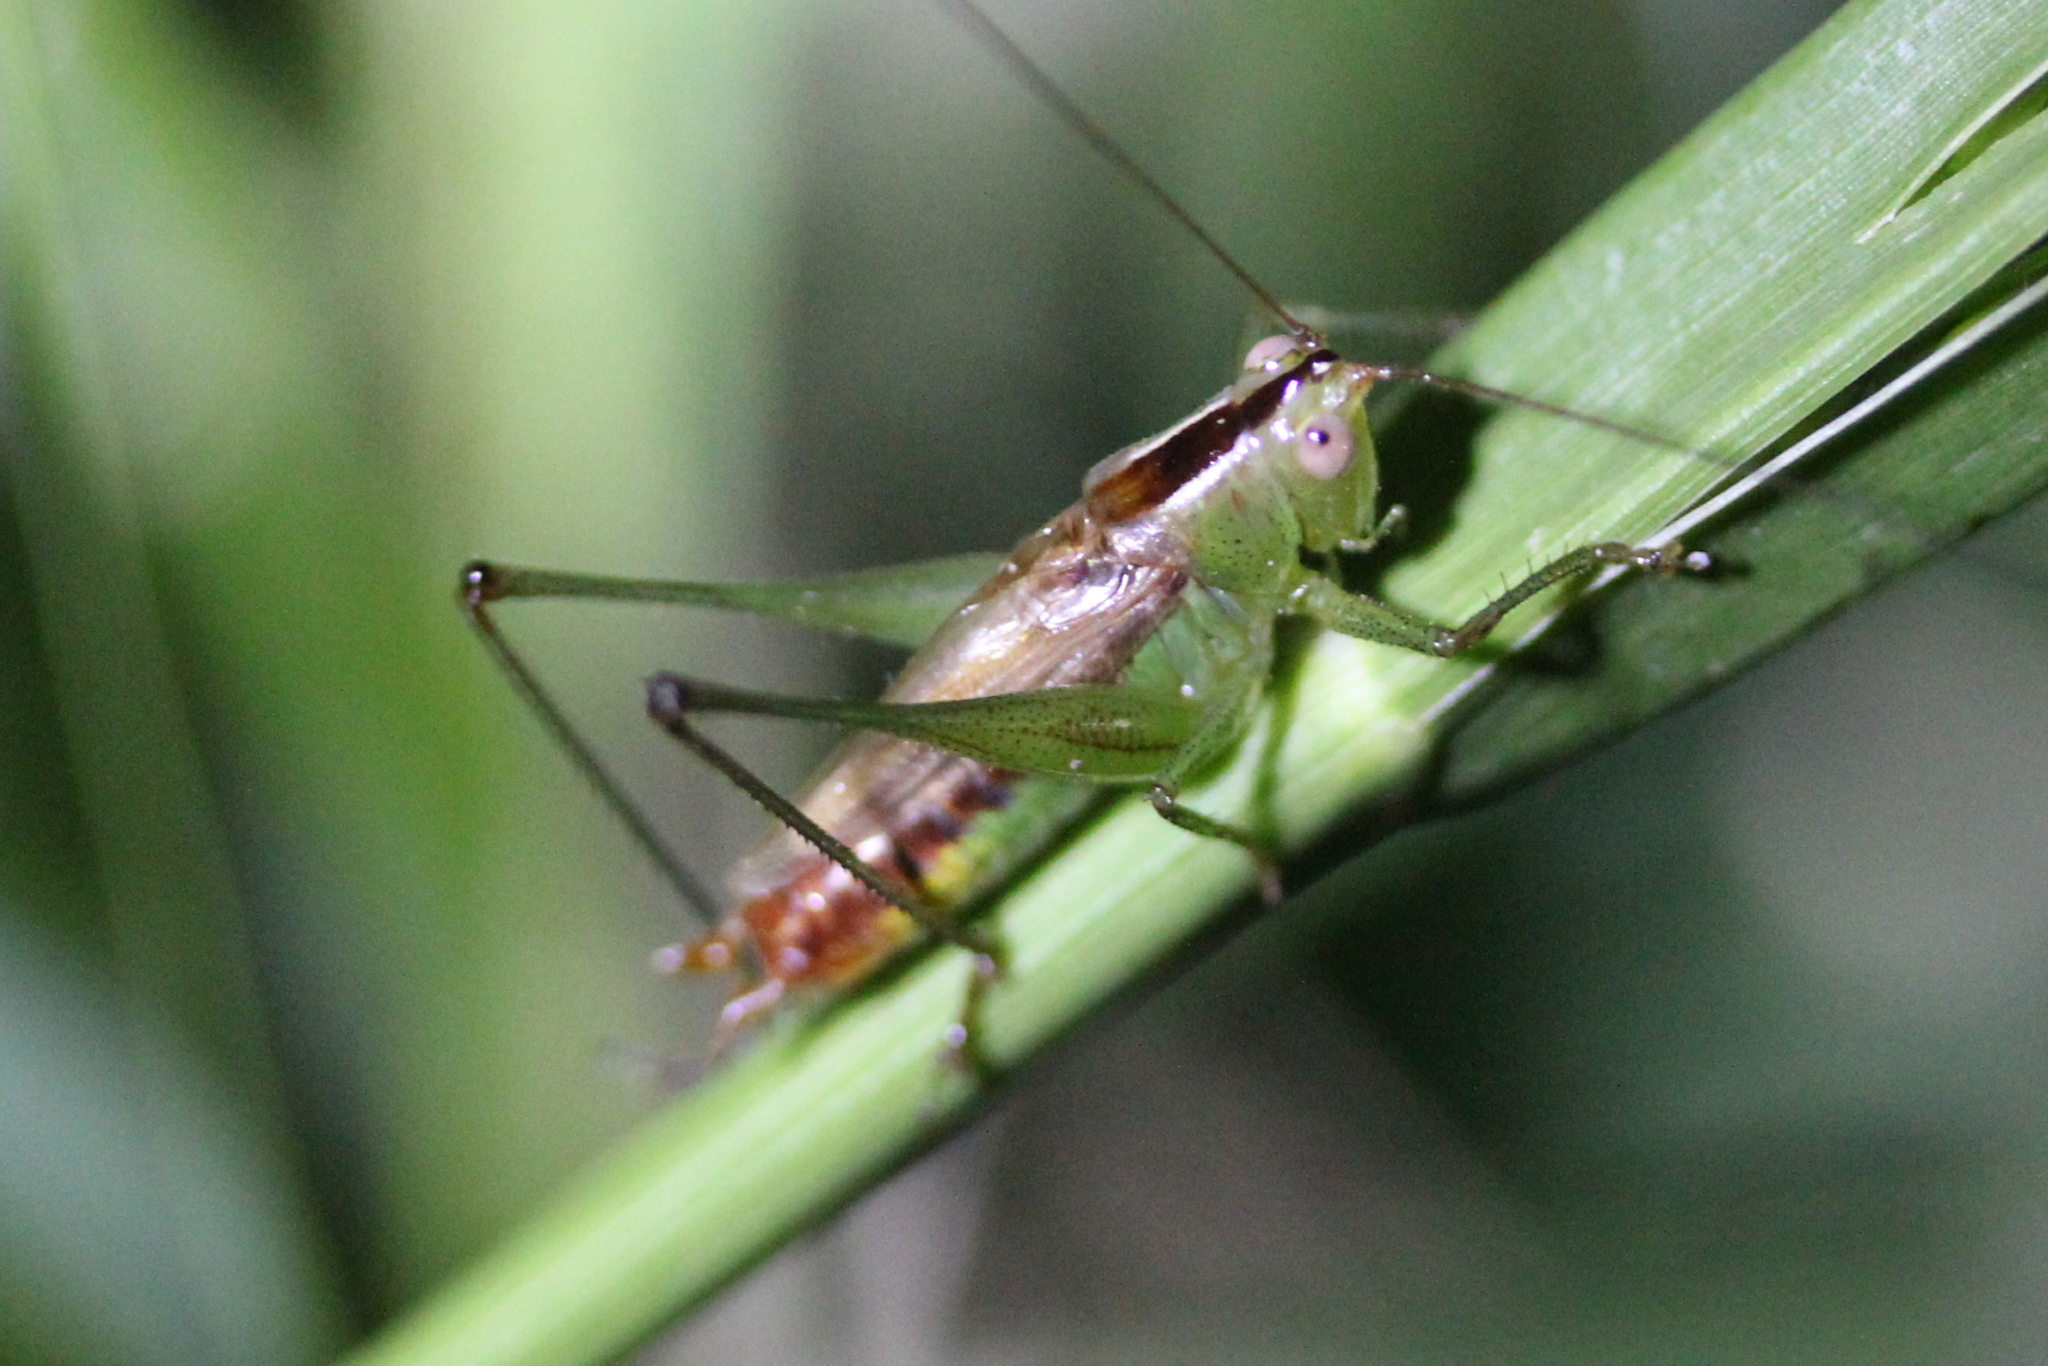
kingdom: Animalia
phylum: Arthropoda
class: Insecta
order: Orthoptera
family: Tettigoniidae
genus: Conocephalus
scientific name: Conocephalus brevipennis
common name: Short-winged meadow katydid
